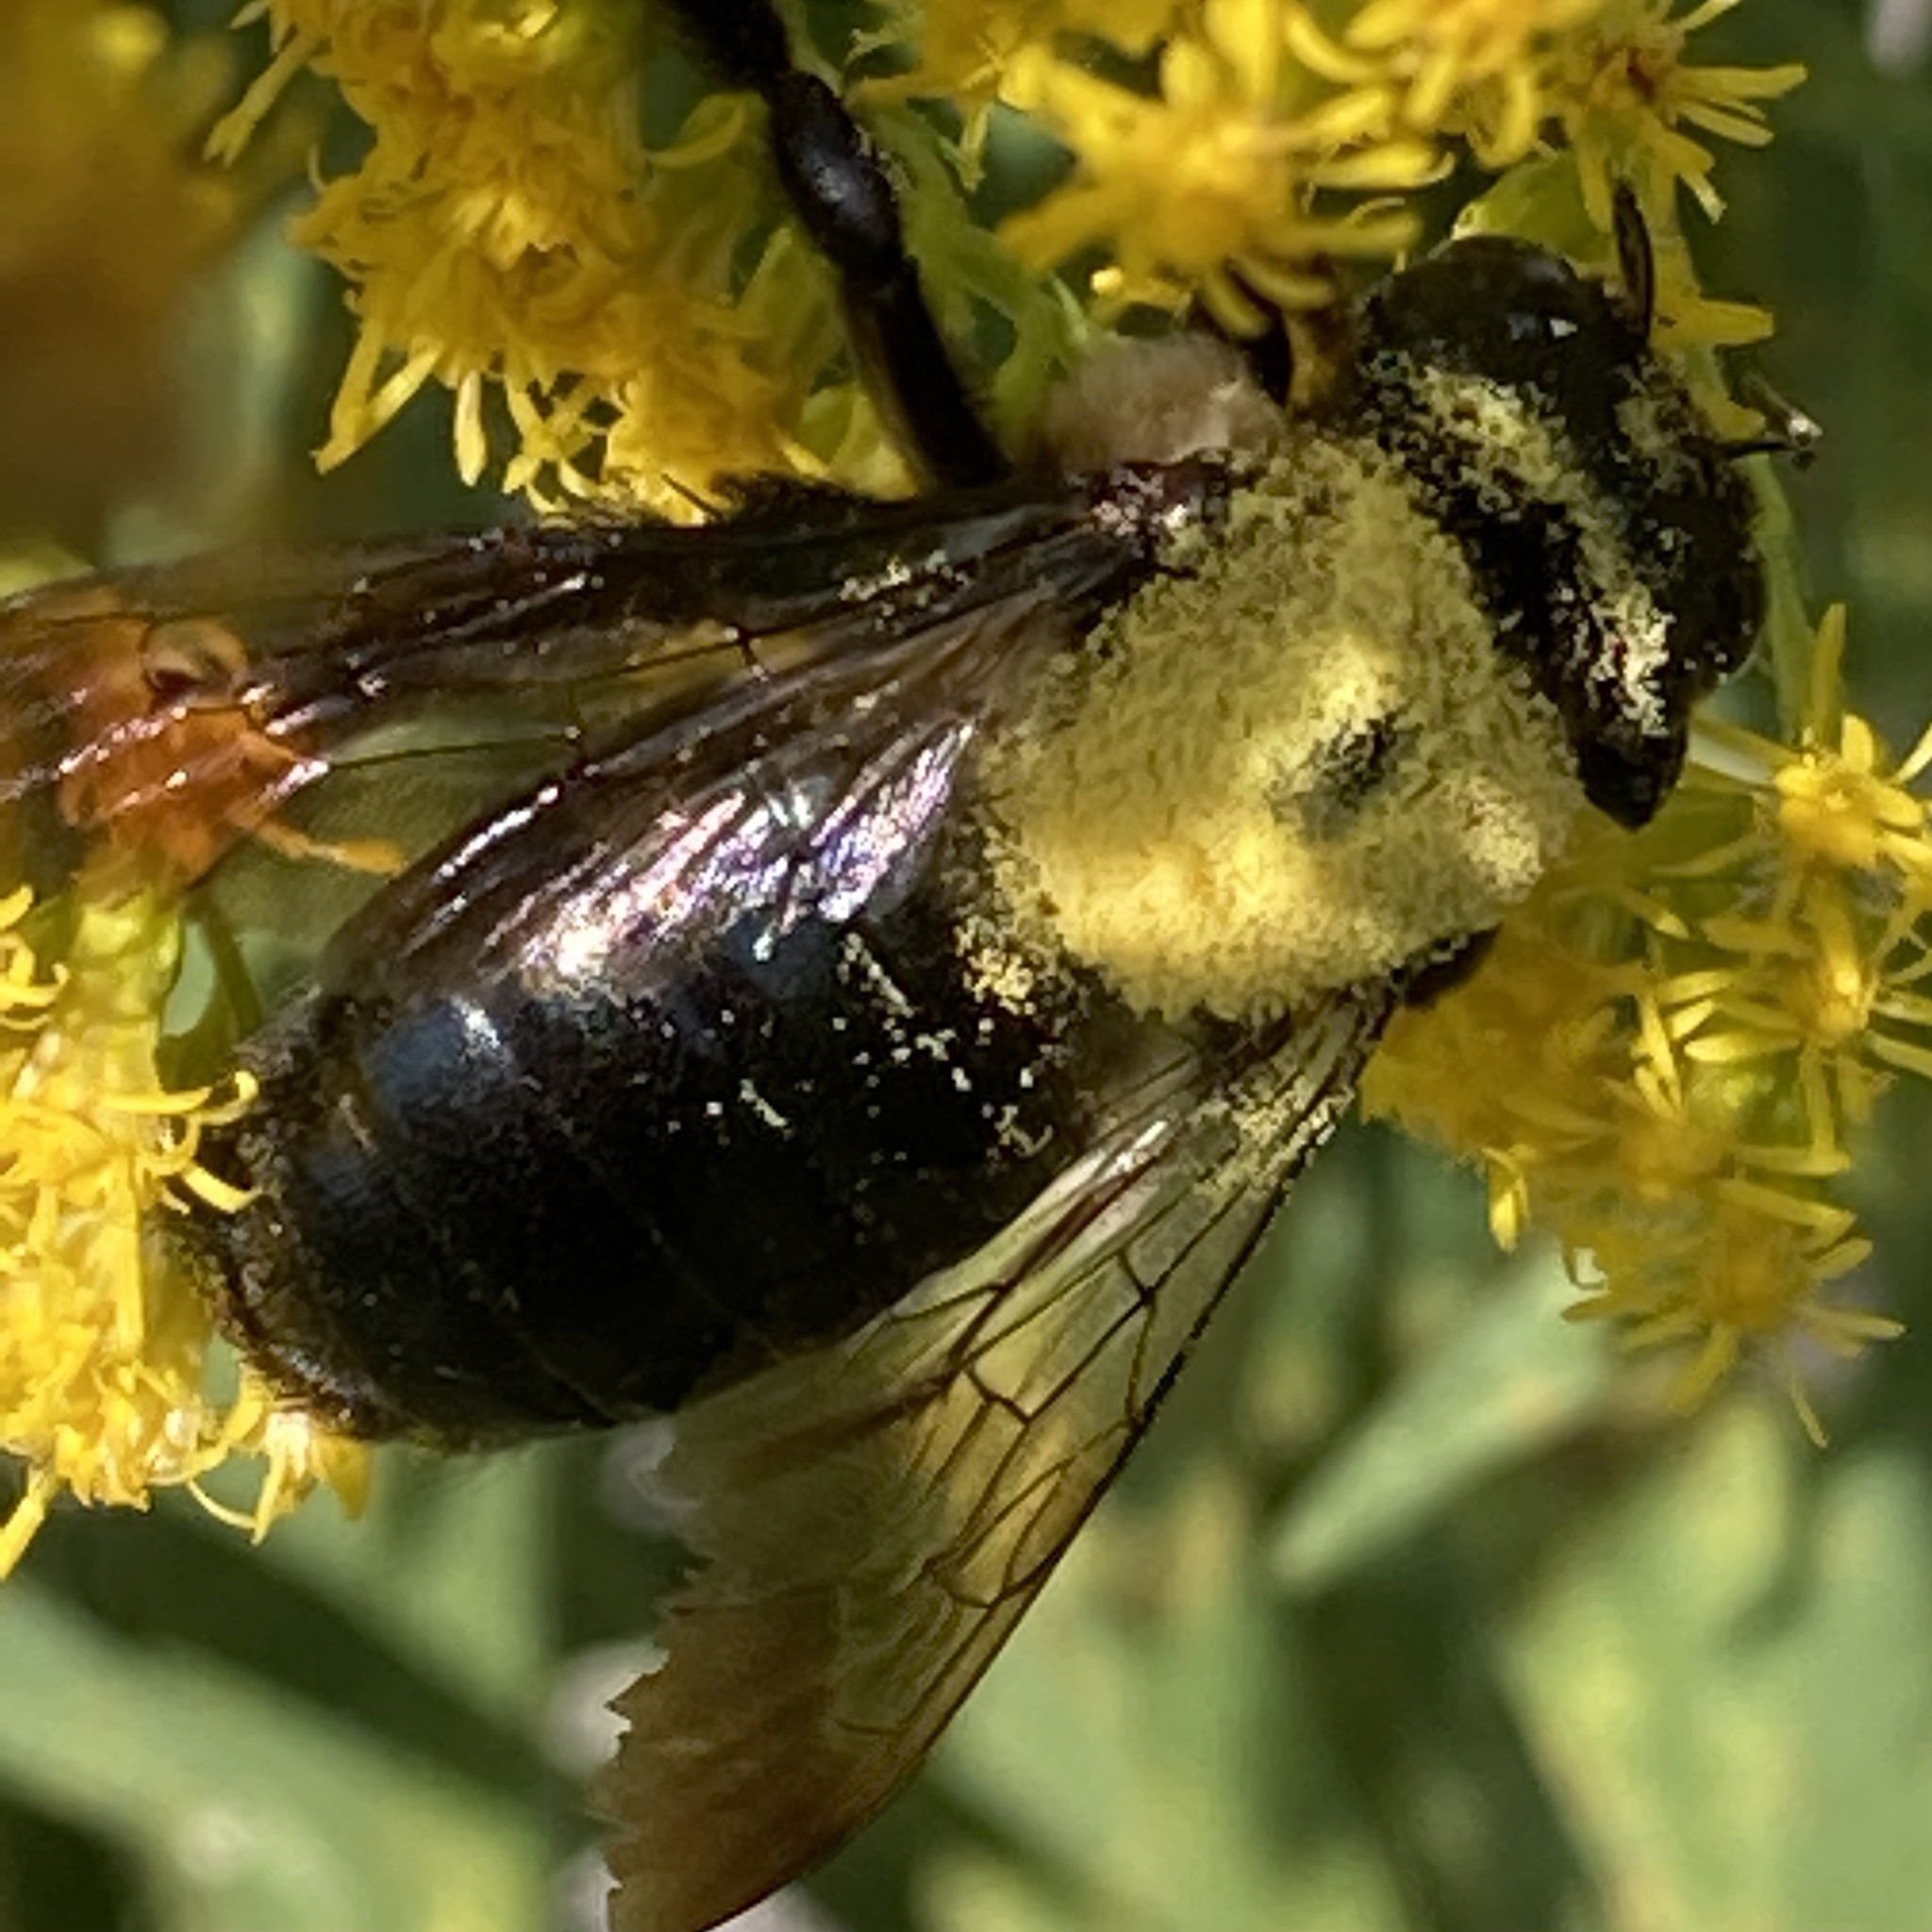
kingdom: Animalia
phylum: Arthropoda
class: Insecta
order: Hymenoptera
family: Apidae
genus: Xylocopa
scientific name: Xylocopa virginica
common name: Carpenter bee
